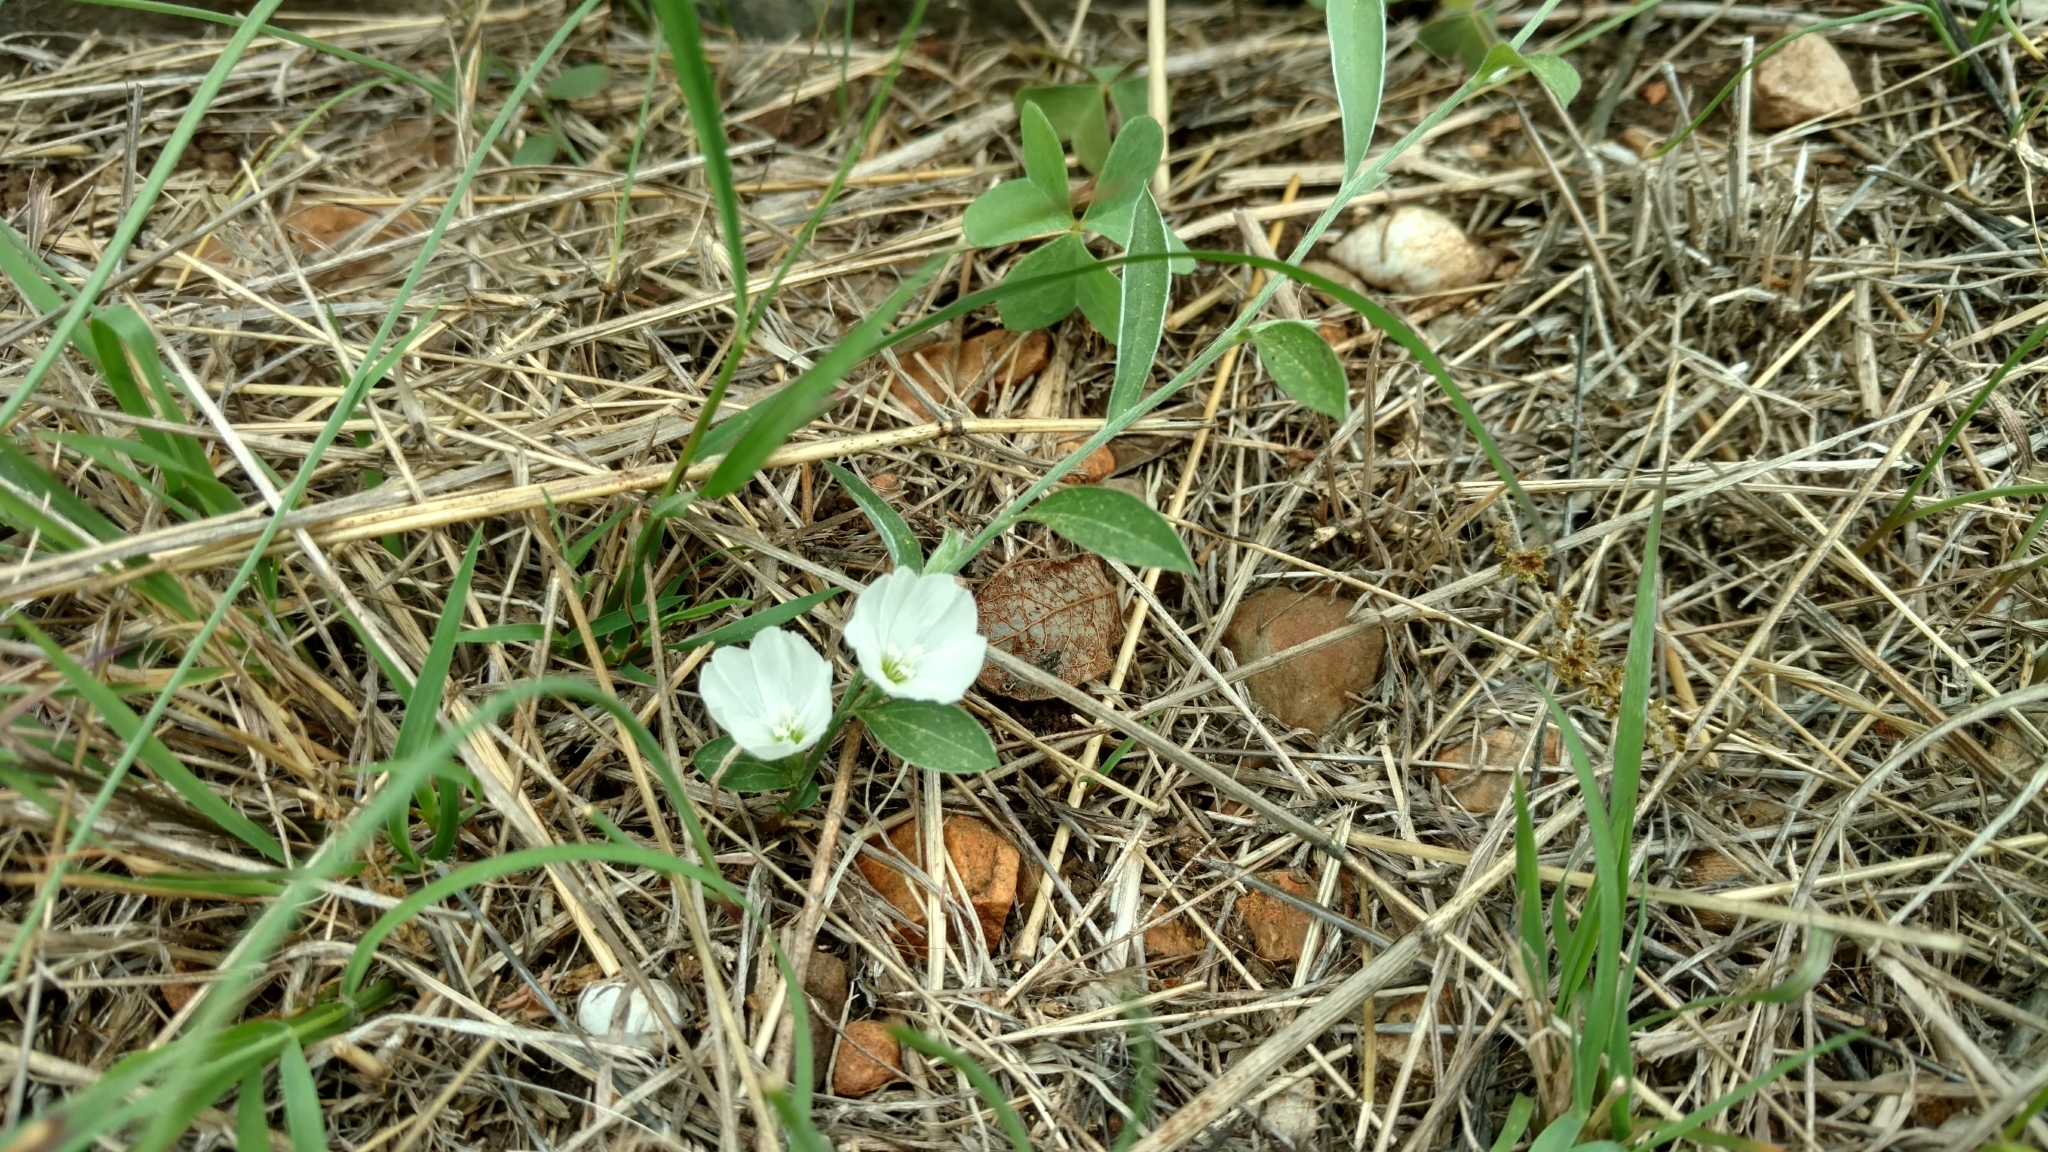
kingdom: Plantae
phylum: Tracheophyta
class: Magnoliopsida
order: Solanales
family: Convolvulaceae
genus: Evolvulus
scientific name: Evolvulus sericeus
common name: Blue dots
